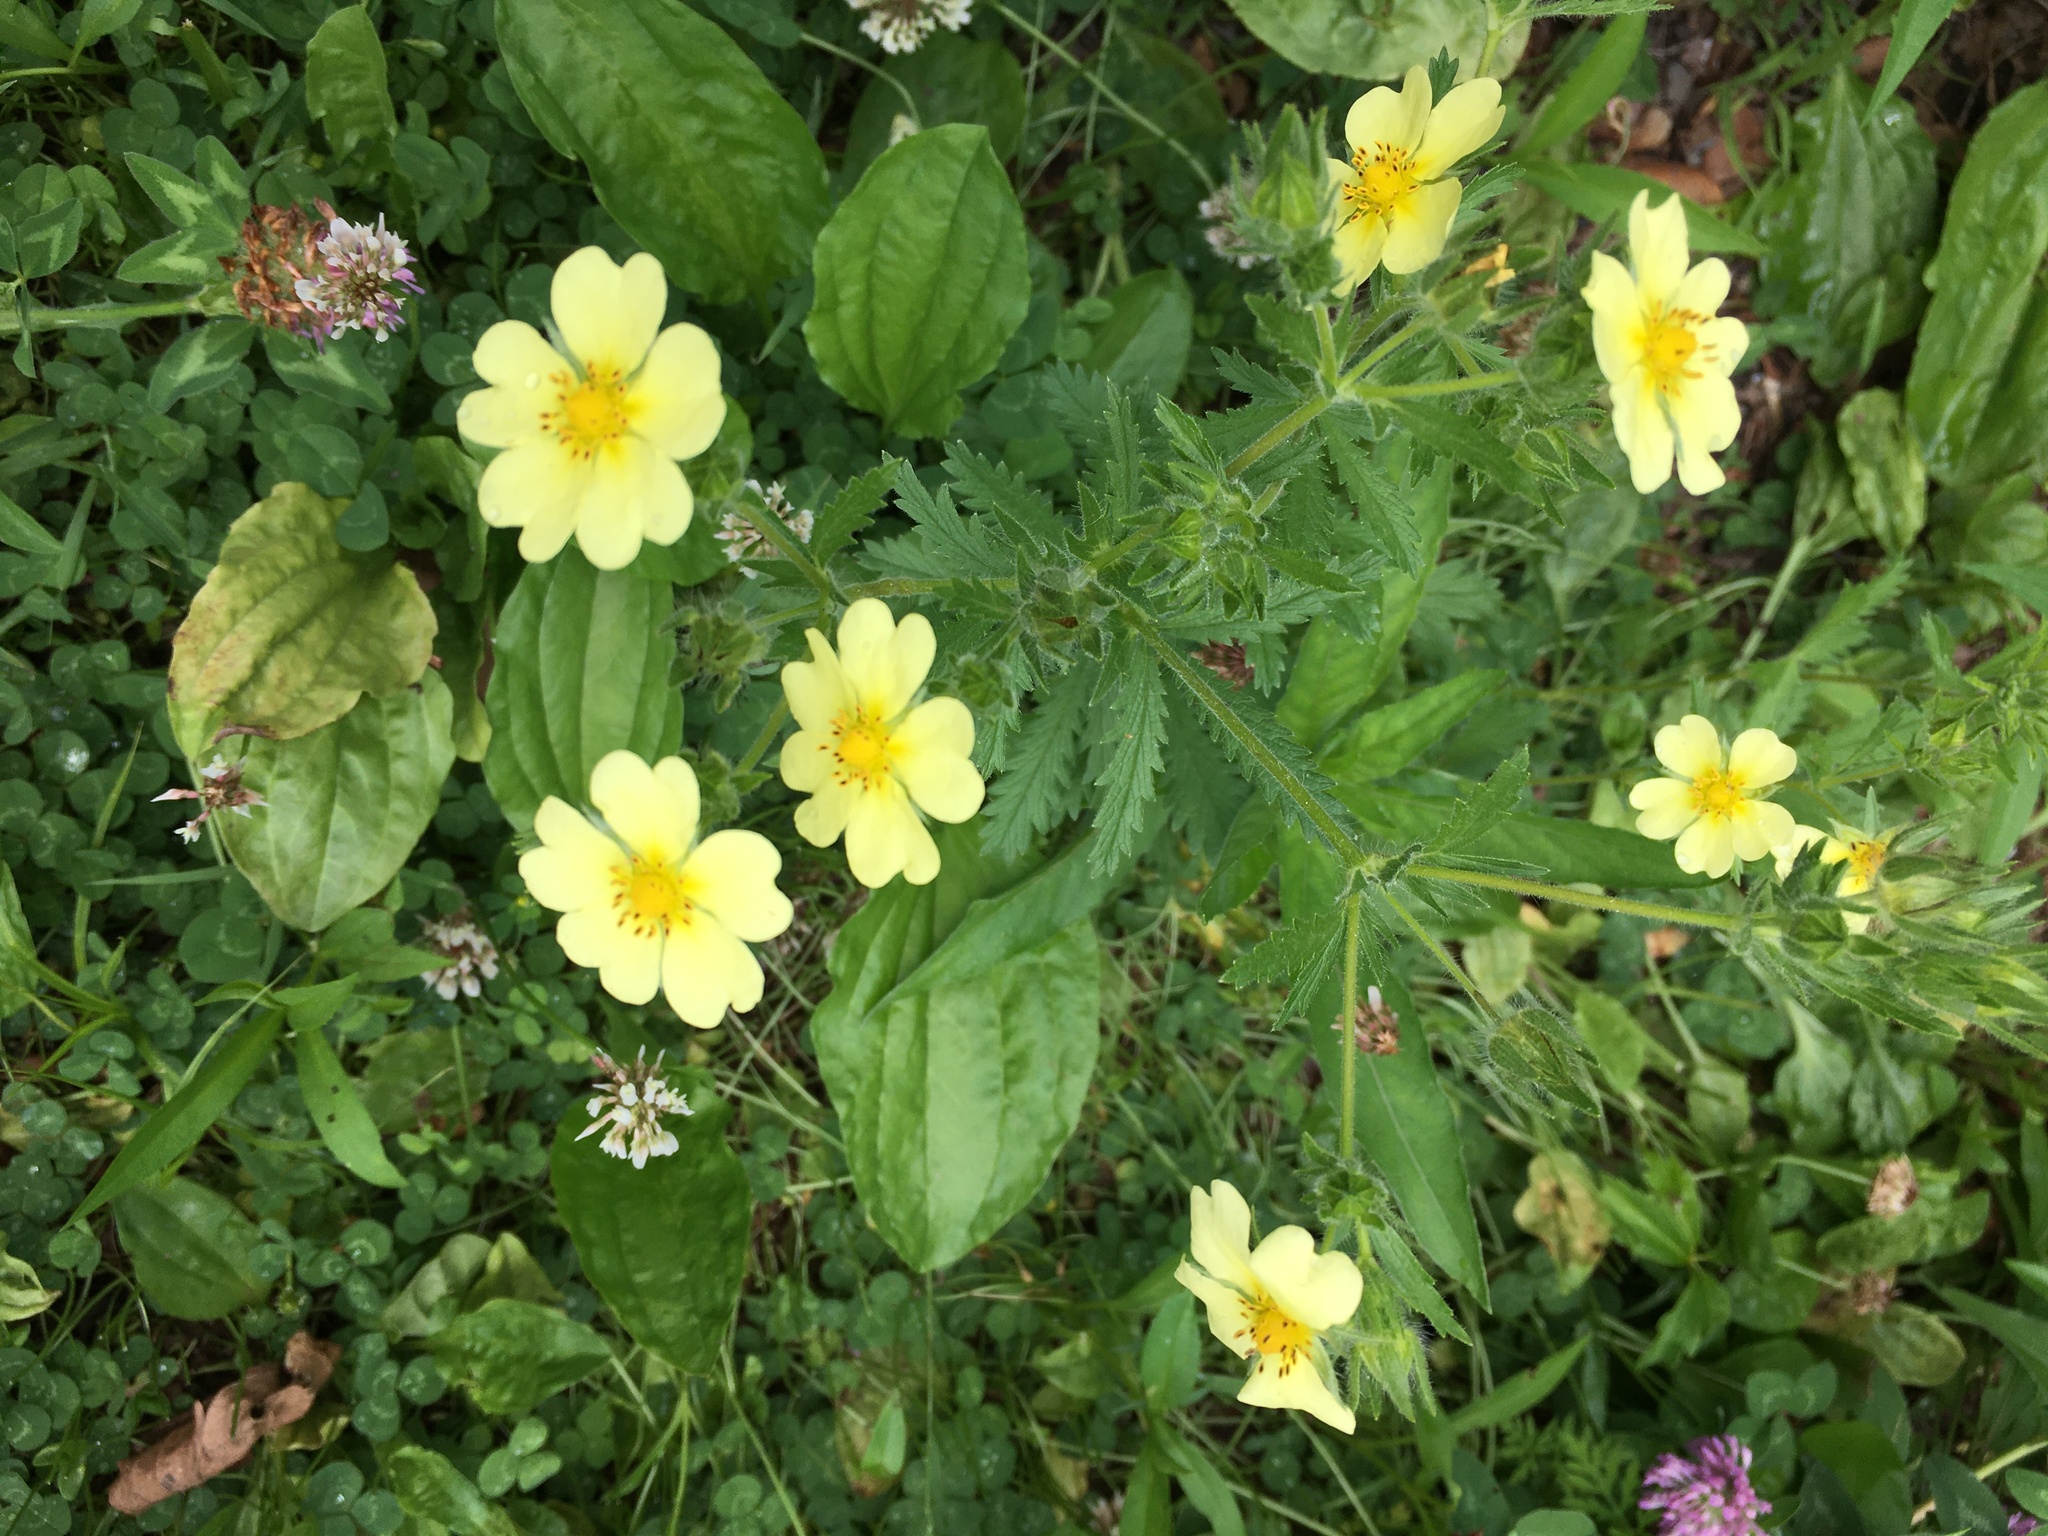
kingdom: Plantae
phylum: Tracheophyta
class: Magnoliopsida
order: Rosales
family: Rosaceae
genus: Potentilla
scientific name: Potentilla recta
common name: Sulphur cinquefoil
